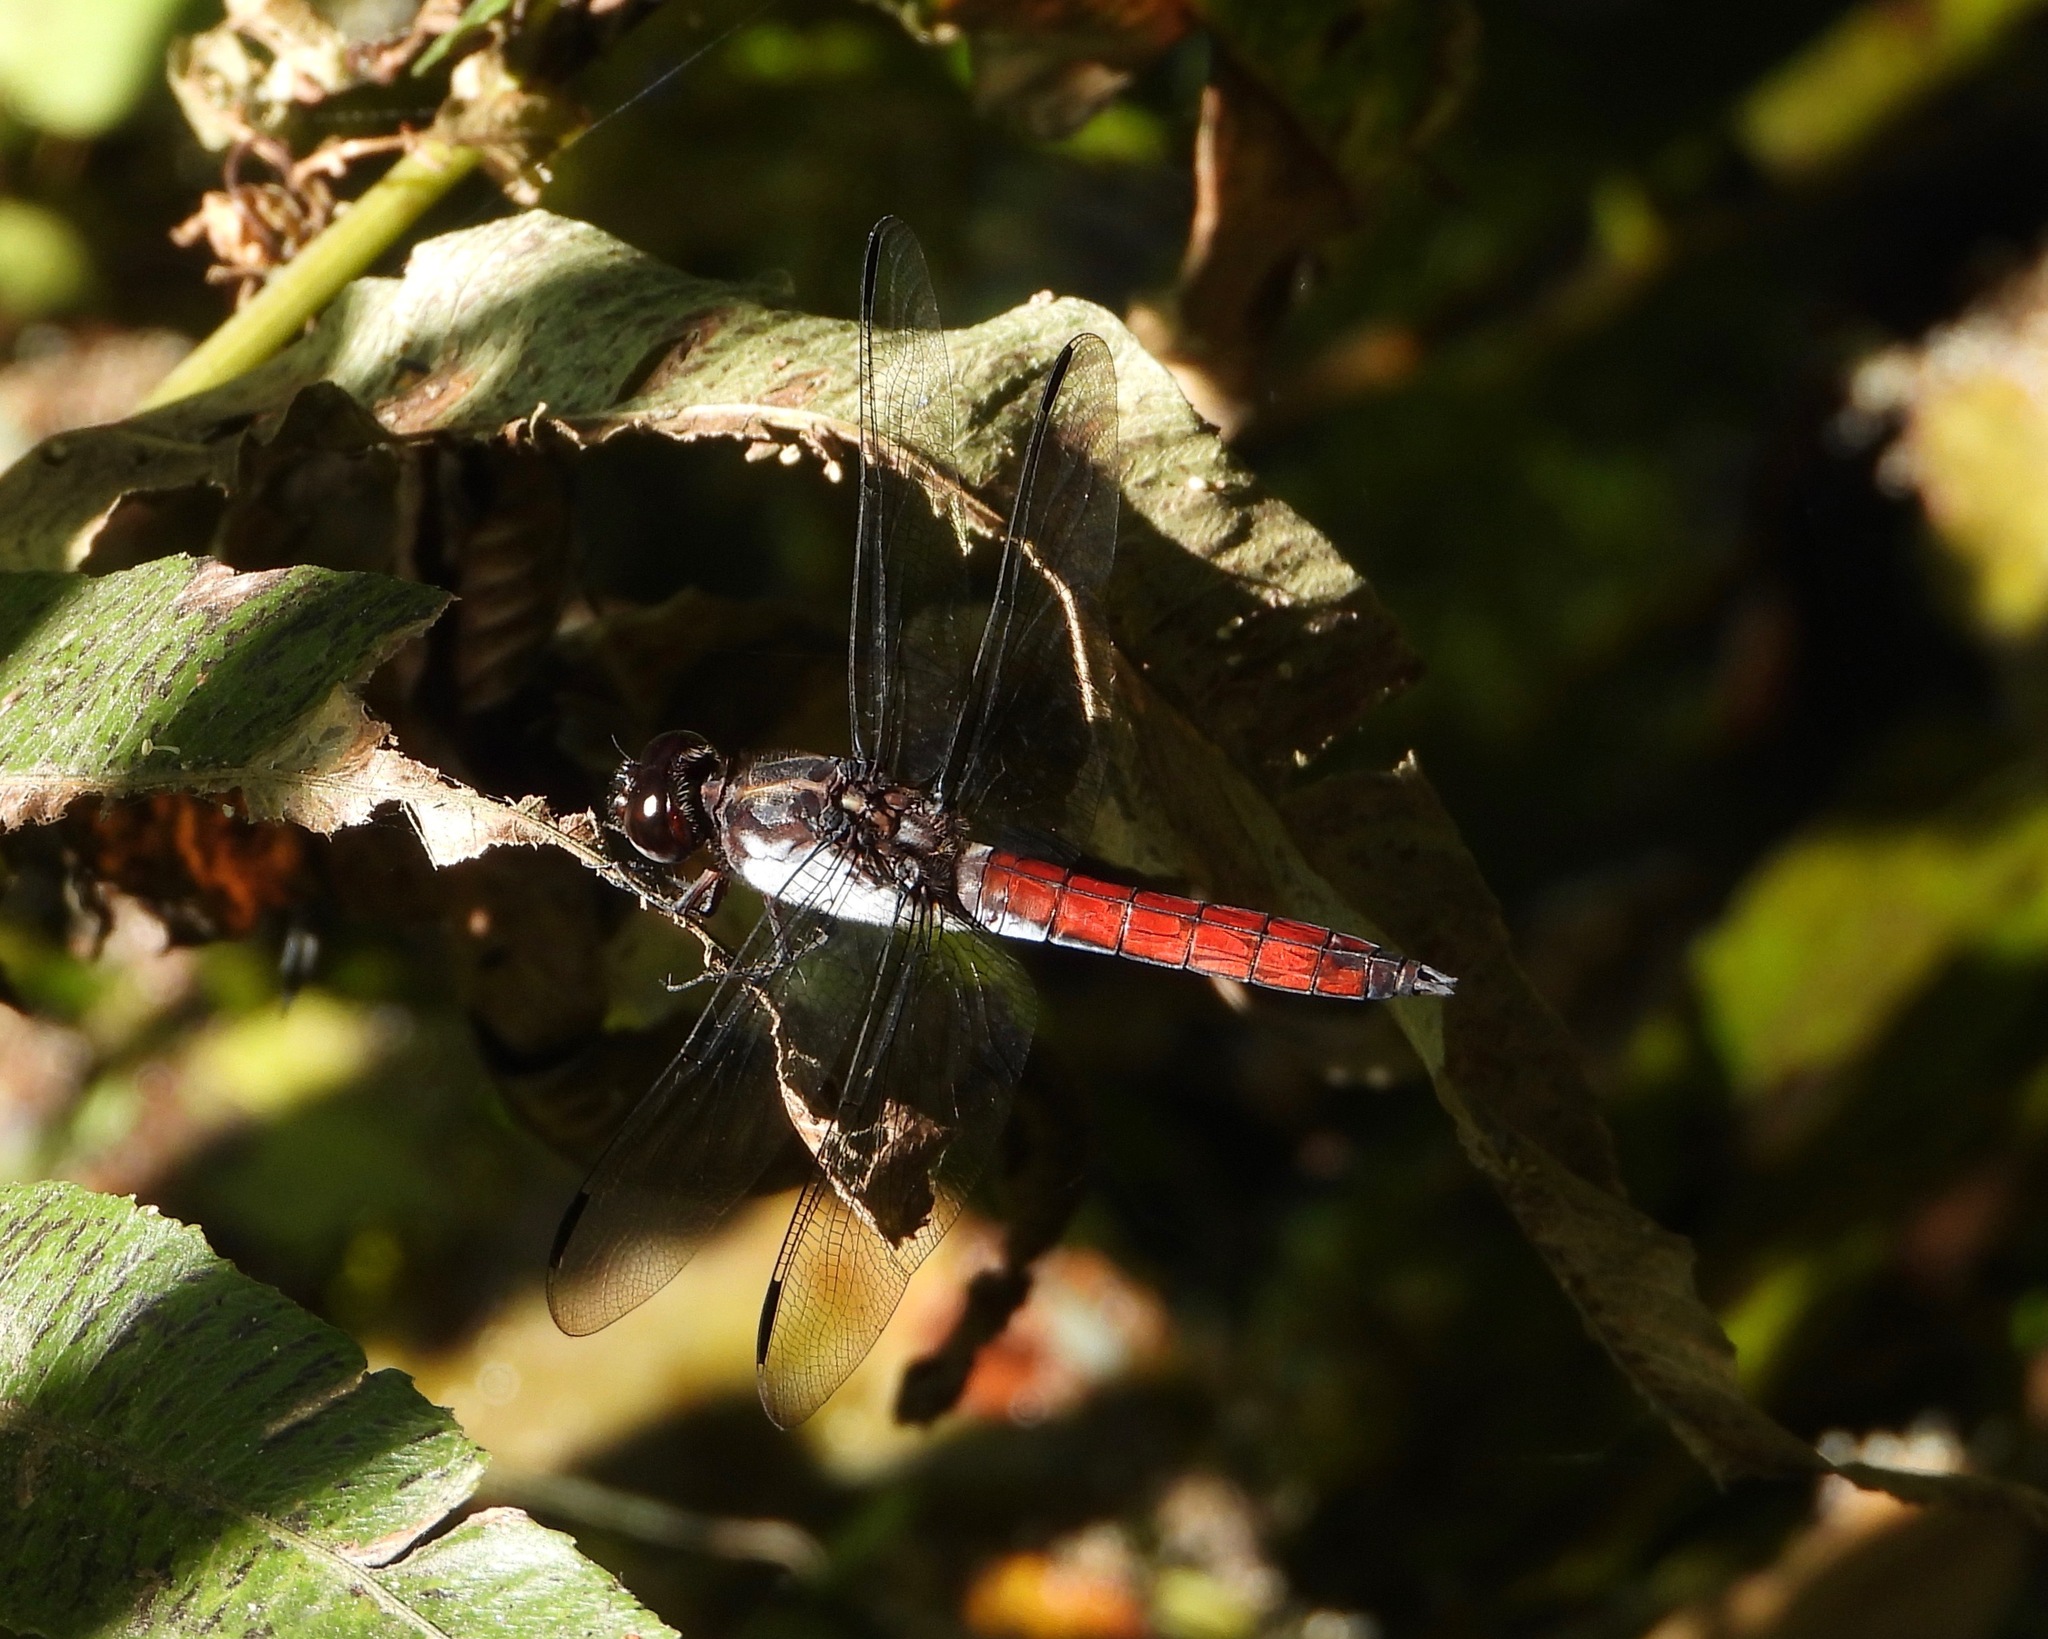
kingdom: Animalia
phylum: Arthropoda
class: Insecta
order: Odonata
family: Libellulidae
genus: Libellula
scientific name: Libellula herculea
